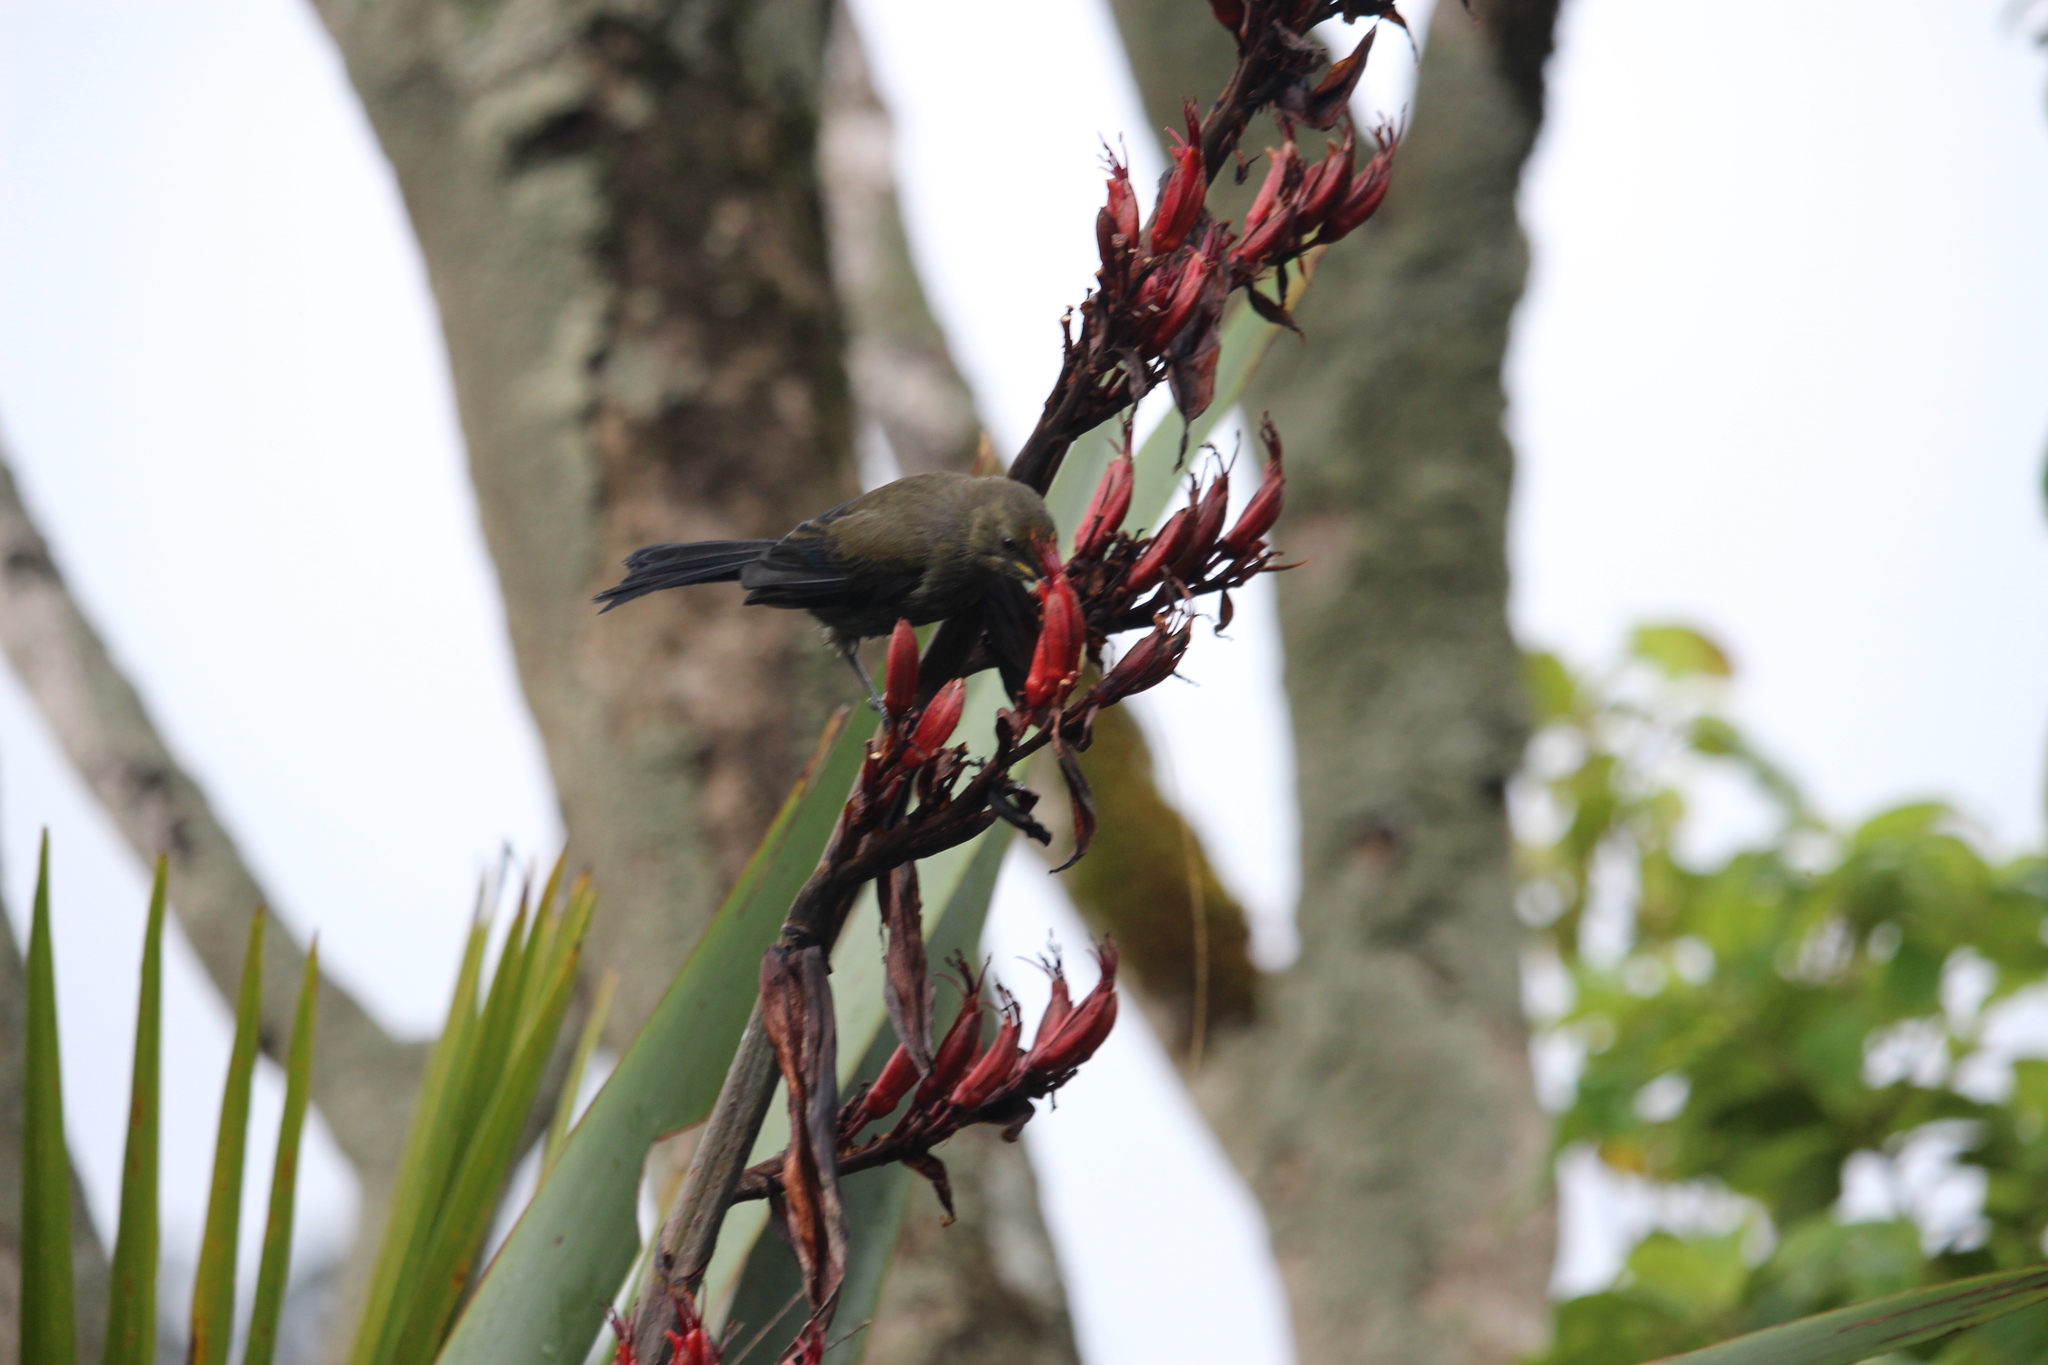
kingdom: Animalia
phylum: Chordata
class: Aves
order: Passeriformes
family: Meliphagidae
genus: Anthornis
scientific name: Anthornis melanura
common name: New zealand bellbird
